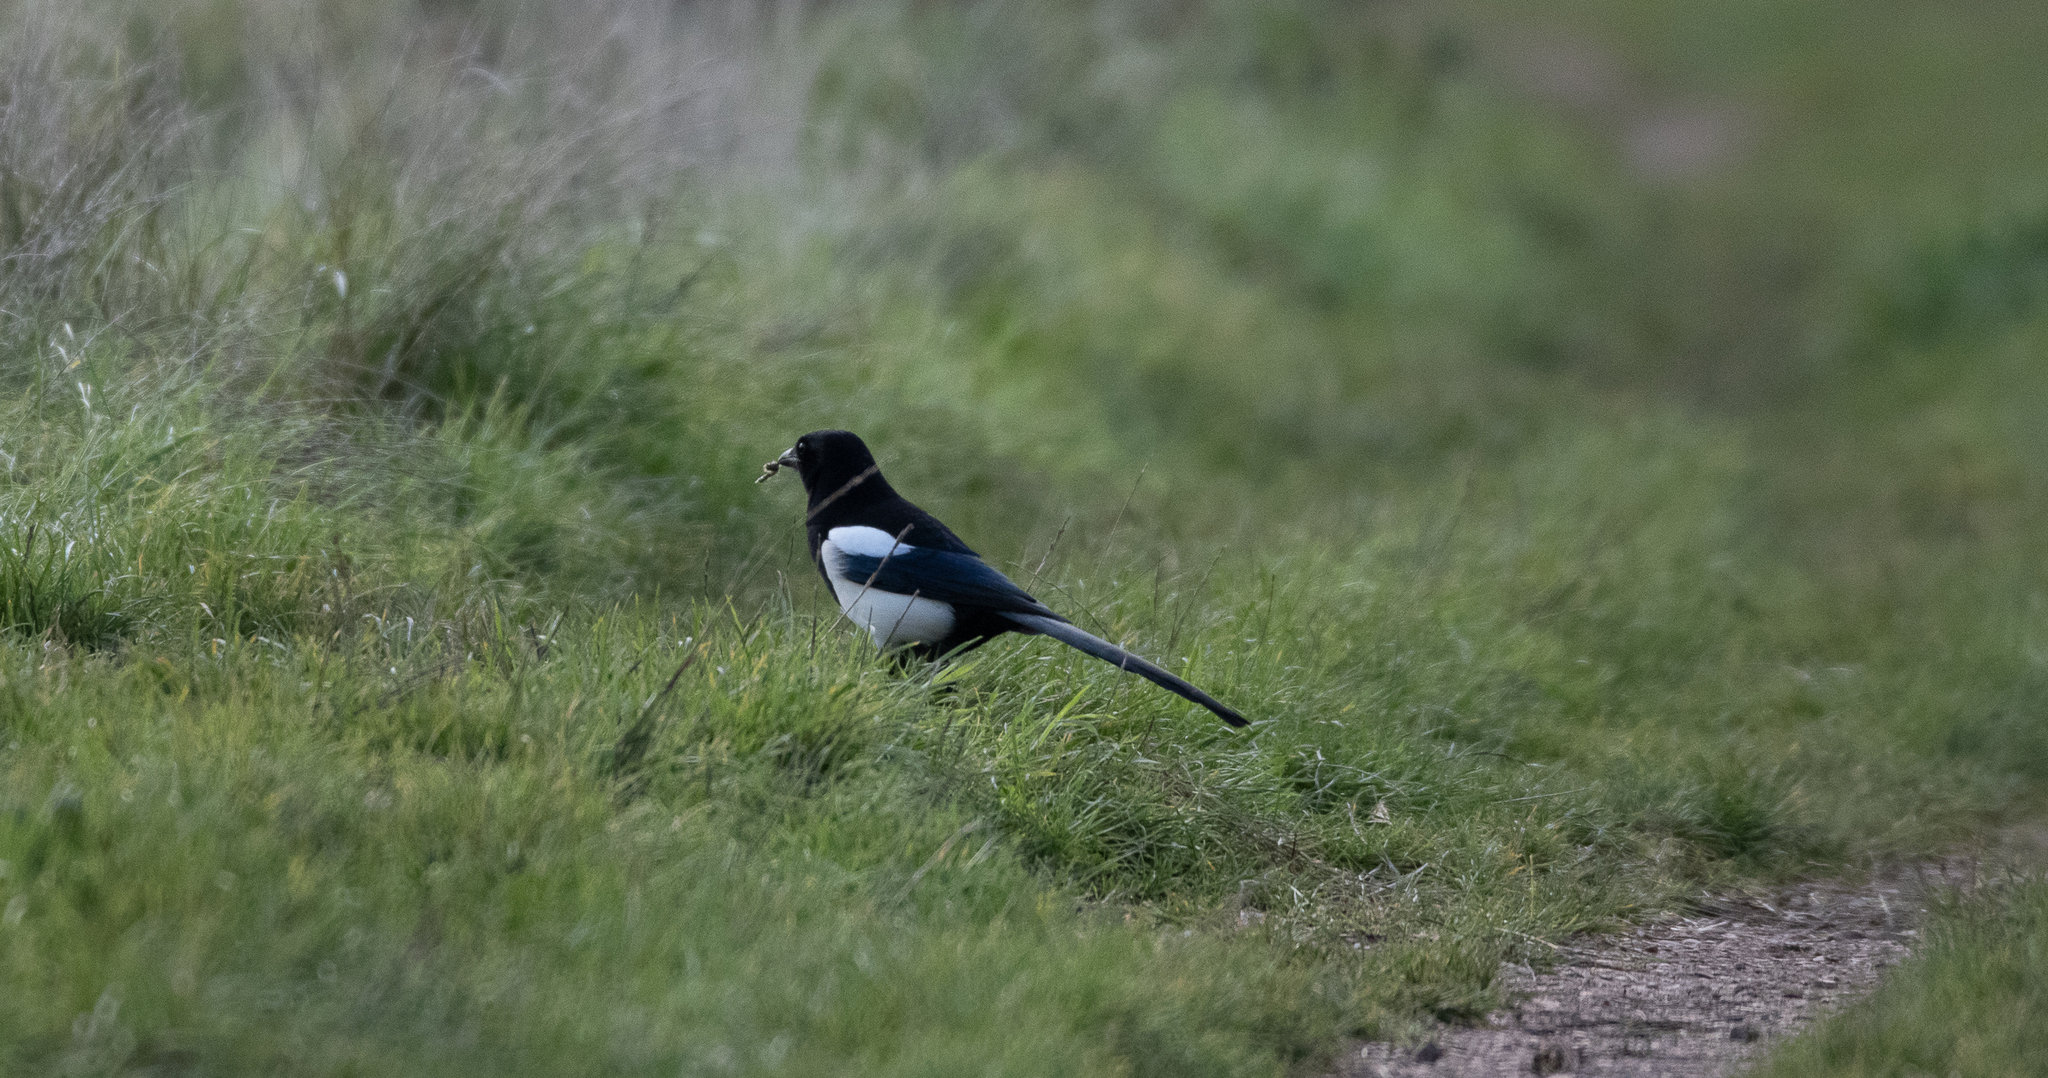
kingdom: Animalia
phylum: Chordata
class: Aves
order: Passeriformes
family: Corvidae
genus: Pica
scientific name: Pica pica
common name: Eurasian magpie
